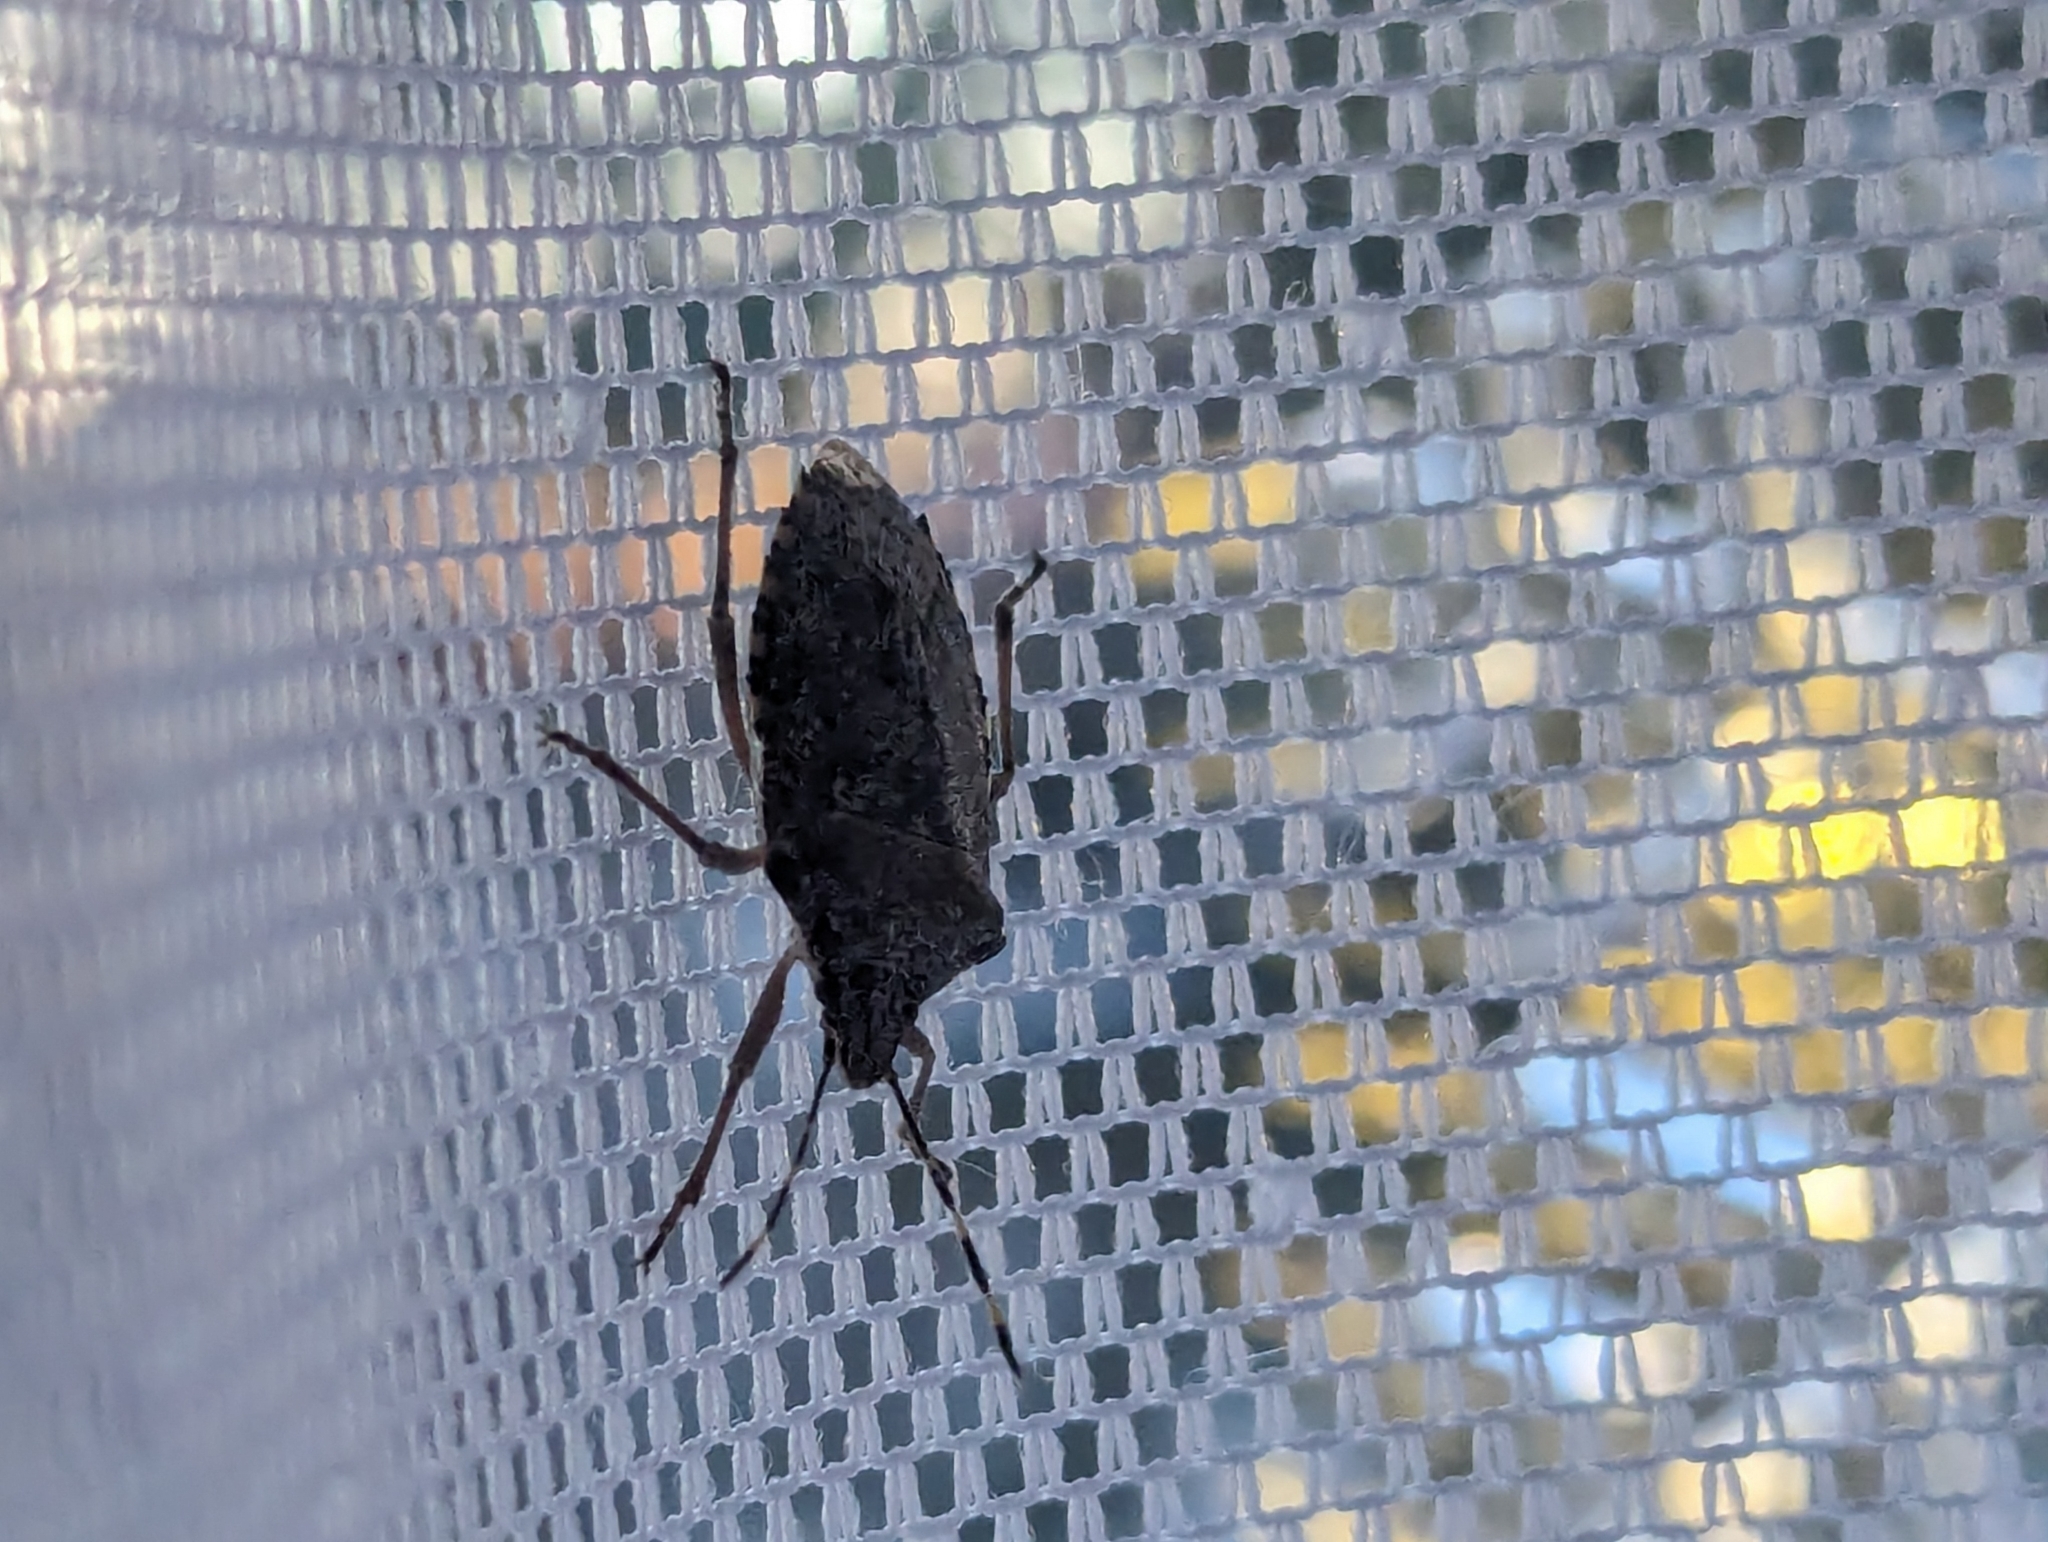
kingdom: Animalia
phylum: Arthropoda
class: Insecta
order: Hemiptera
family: Pentatomidae
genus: Rhaphigaster
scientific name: Rhaphigaster nebulosa
